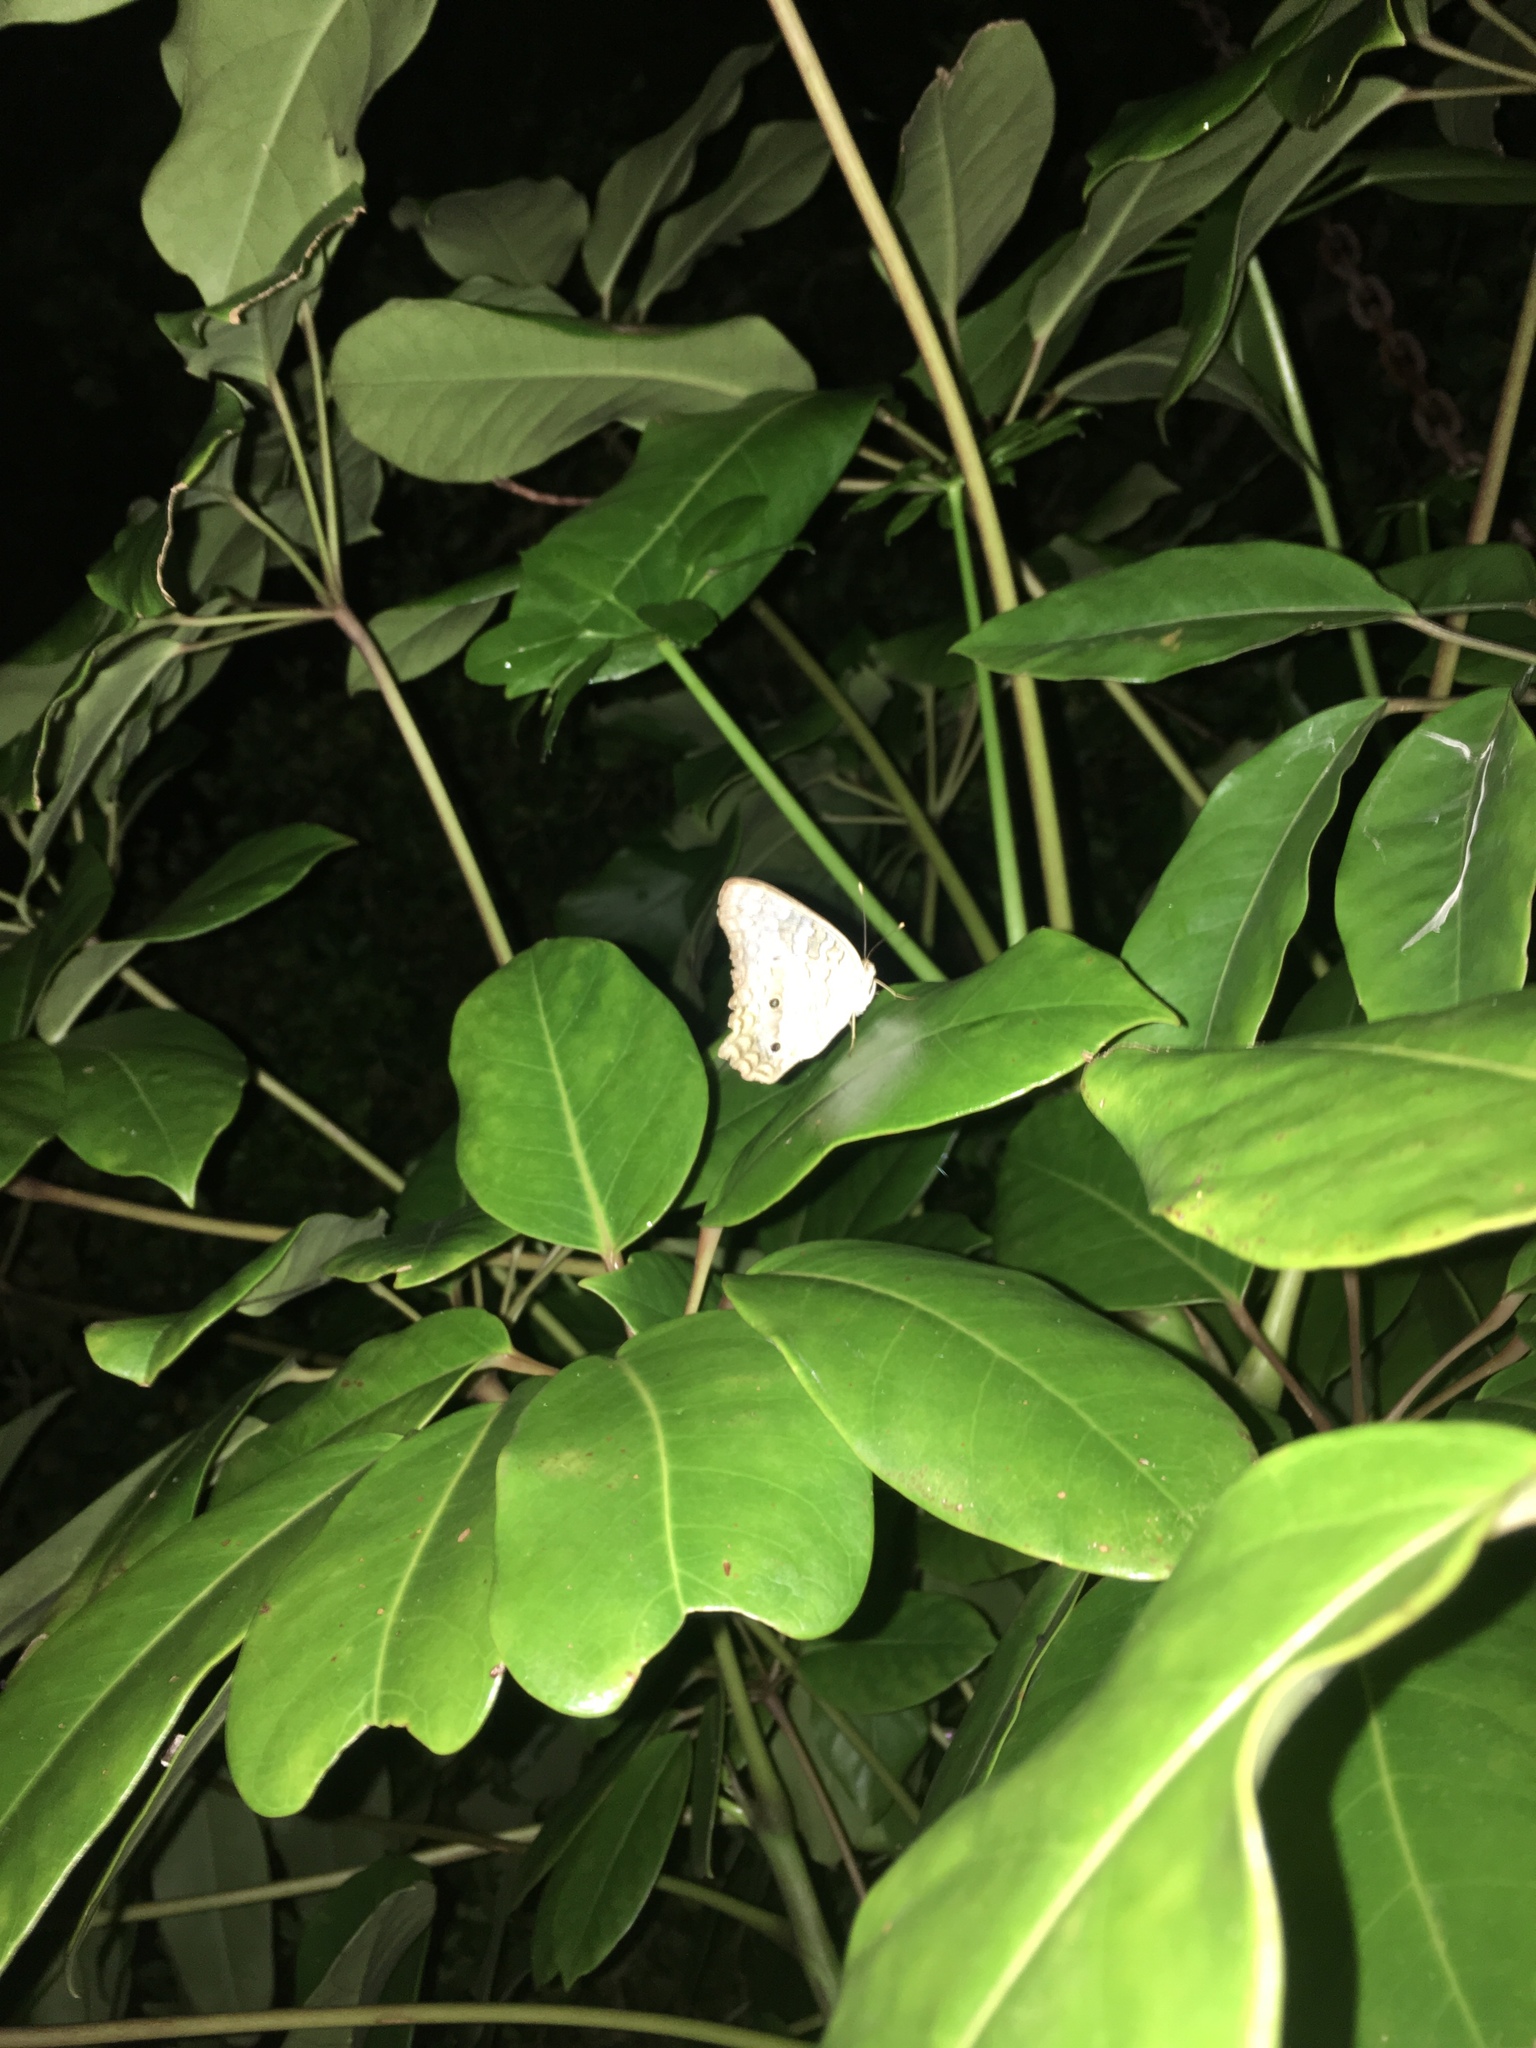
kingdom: Animalia
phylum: Arthropoda
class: Insecta
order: Lepidoptera
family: Nymphalidae
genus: Anartia
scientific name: Anartia jatrophae
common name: White peacock
